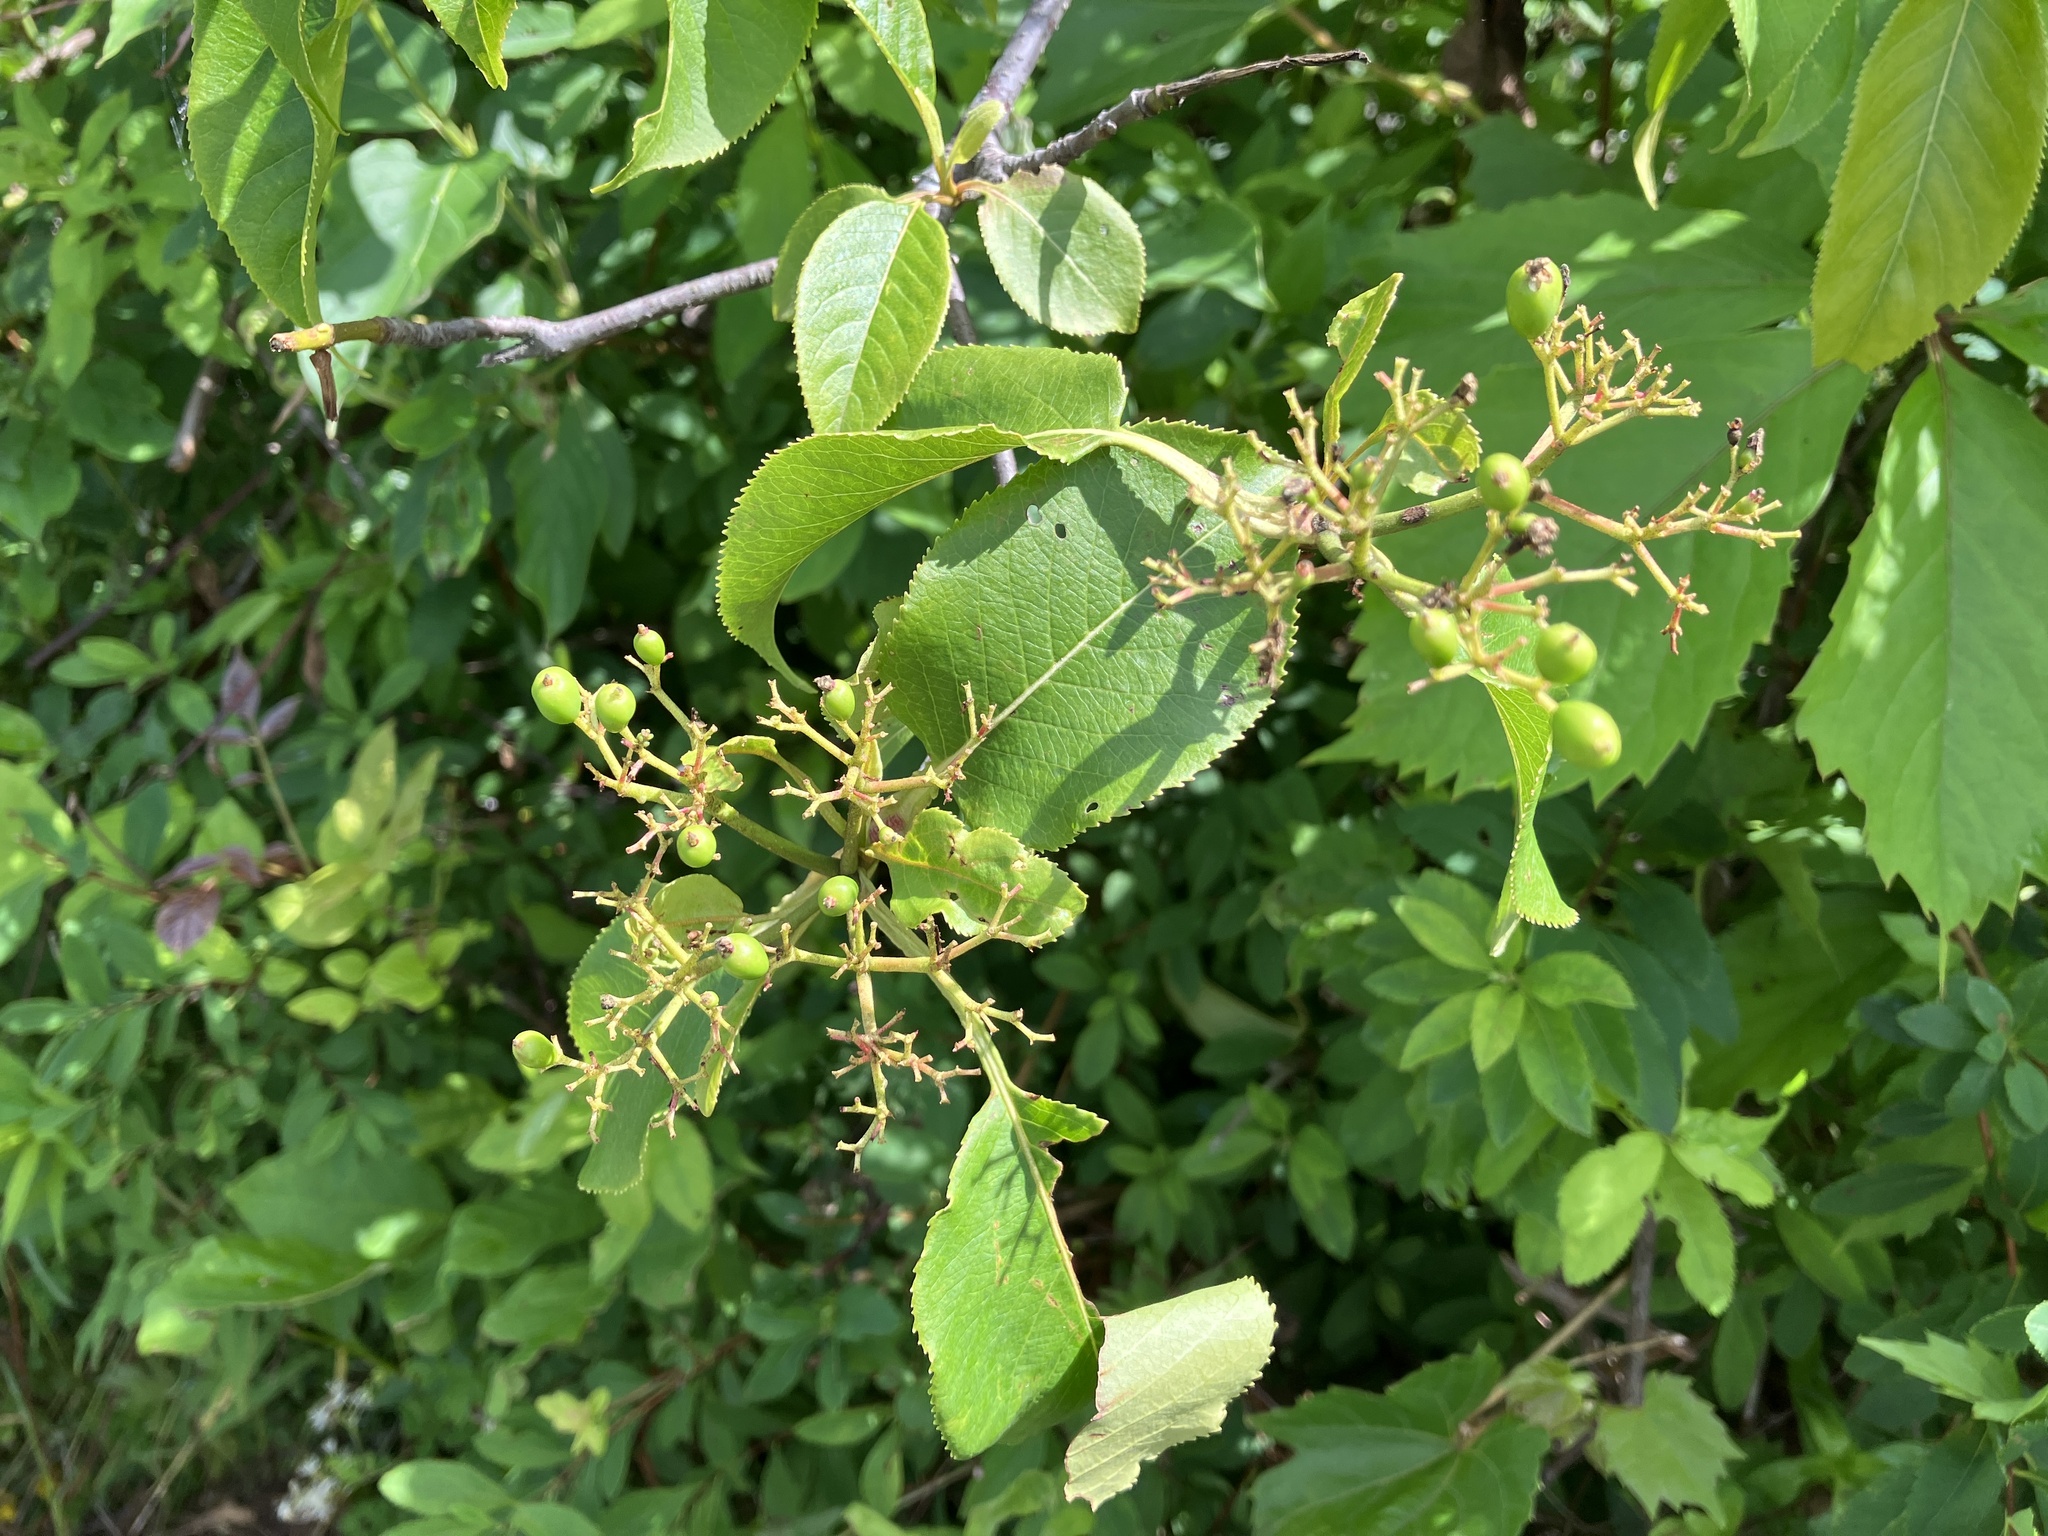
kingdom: Plantae
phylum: Tracheophyta
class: Magnoliopsida
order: Dipsacales
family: Viburnaceae
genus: Viburnum
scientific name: Viburnum lentago
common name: Black haw
